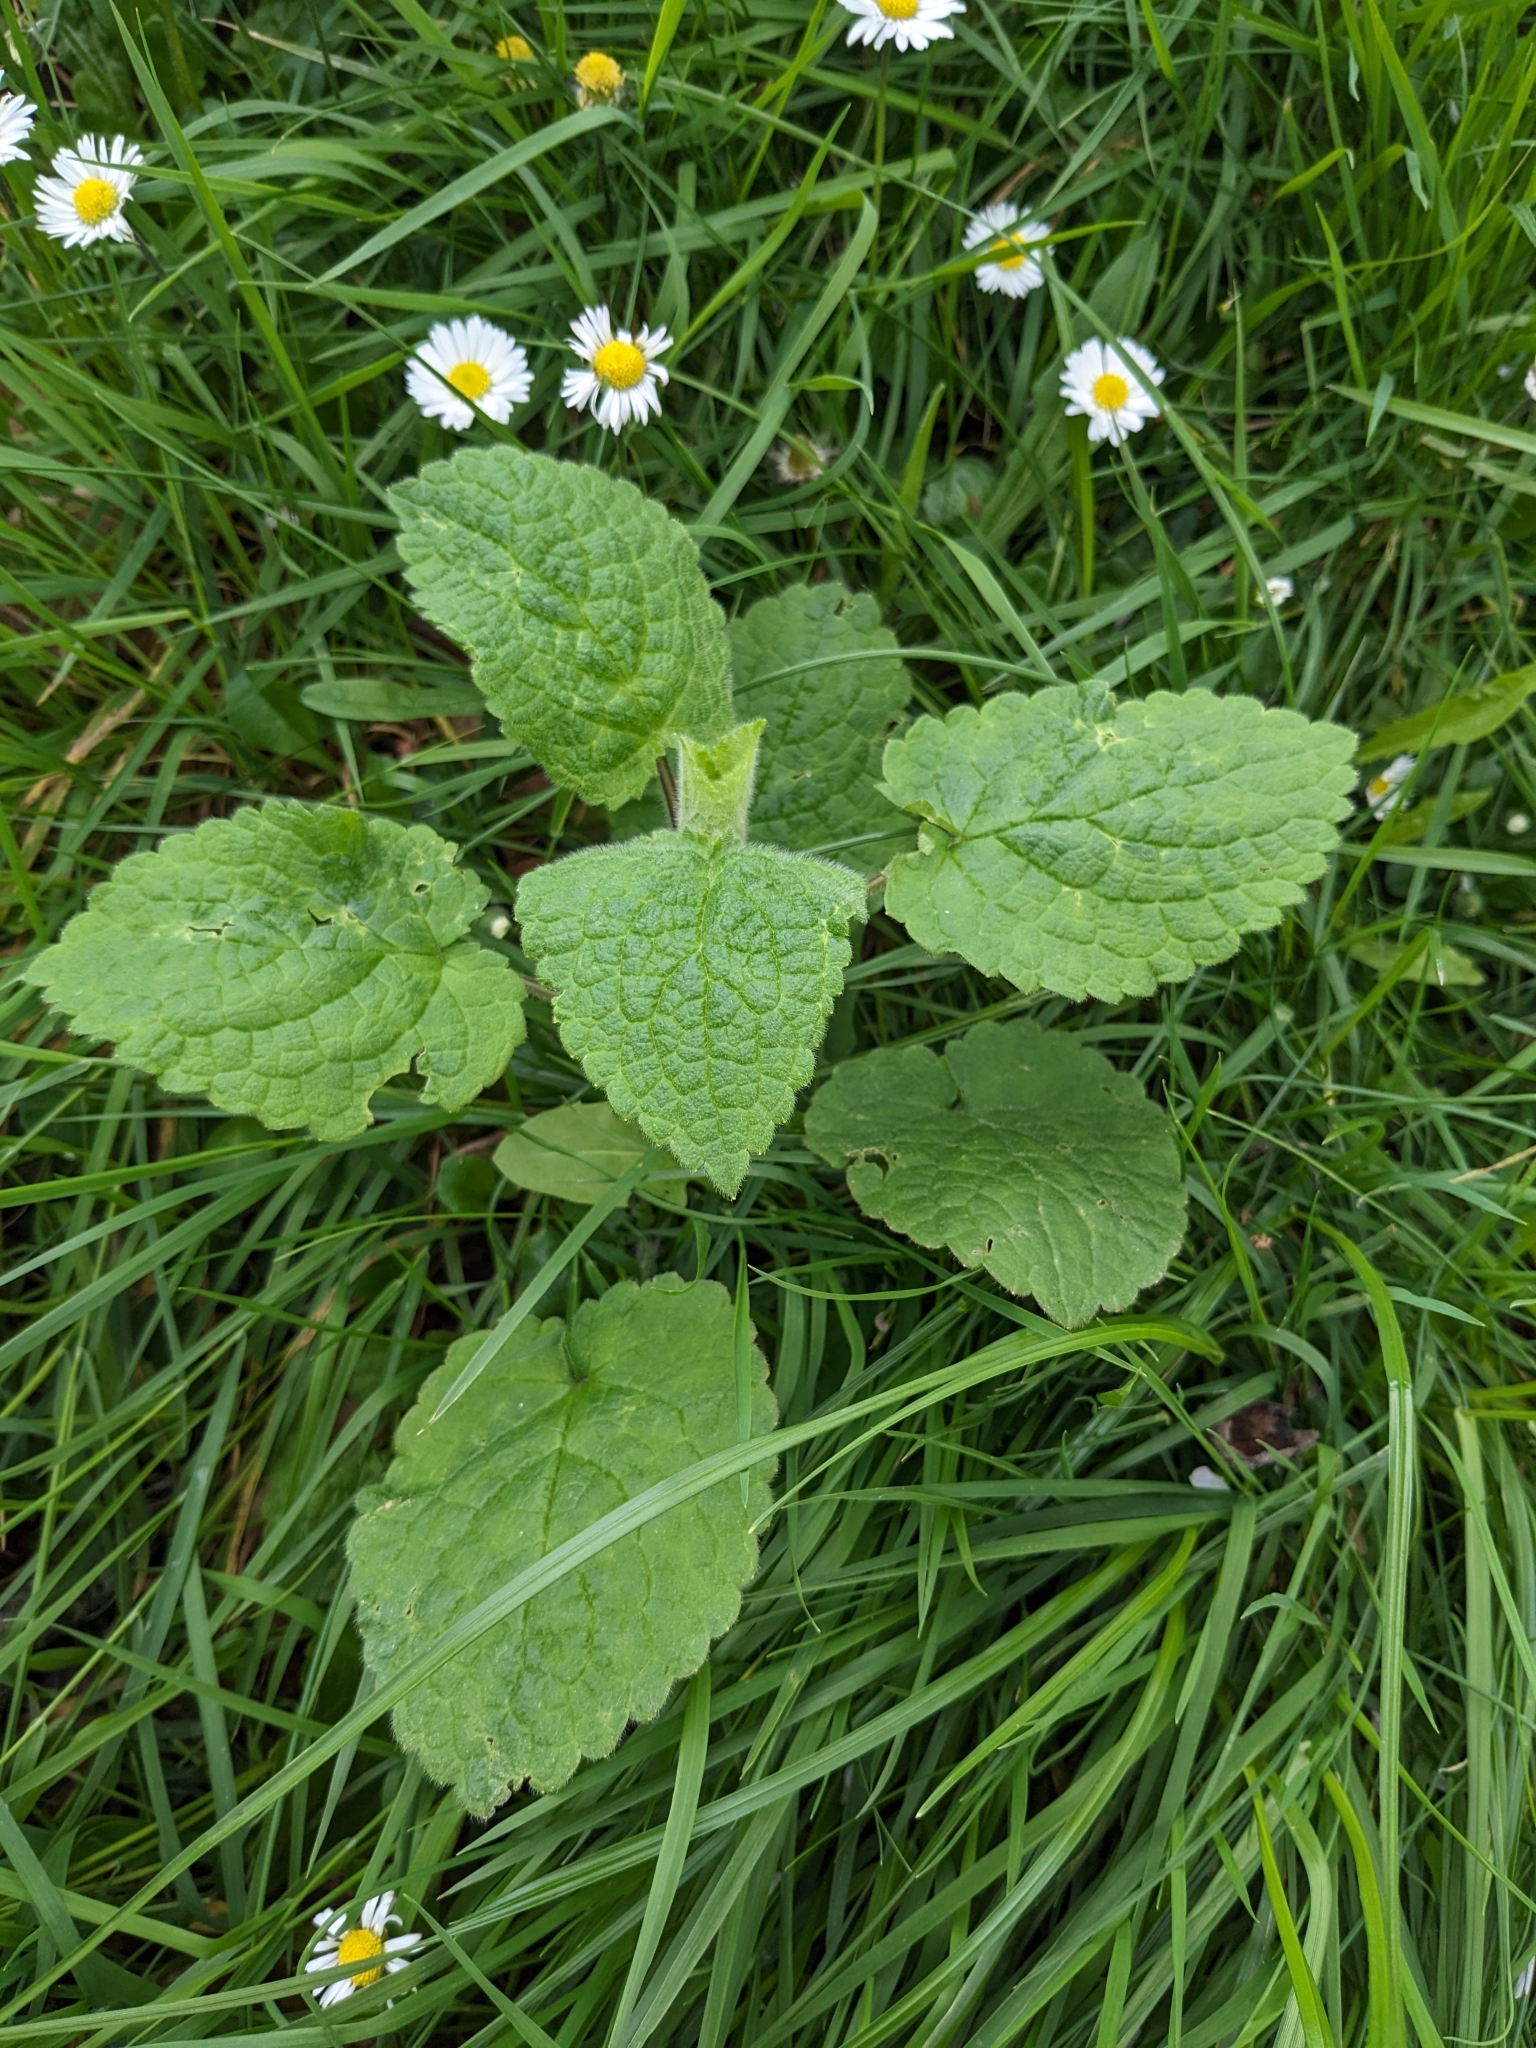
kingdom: Plantae
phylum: Tracheophyta
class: Magnoliopsida
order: Lamiales
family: Lamiaceae
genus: Stachys
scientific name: Stachys sylvatica
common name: Hedge woundwort
